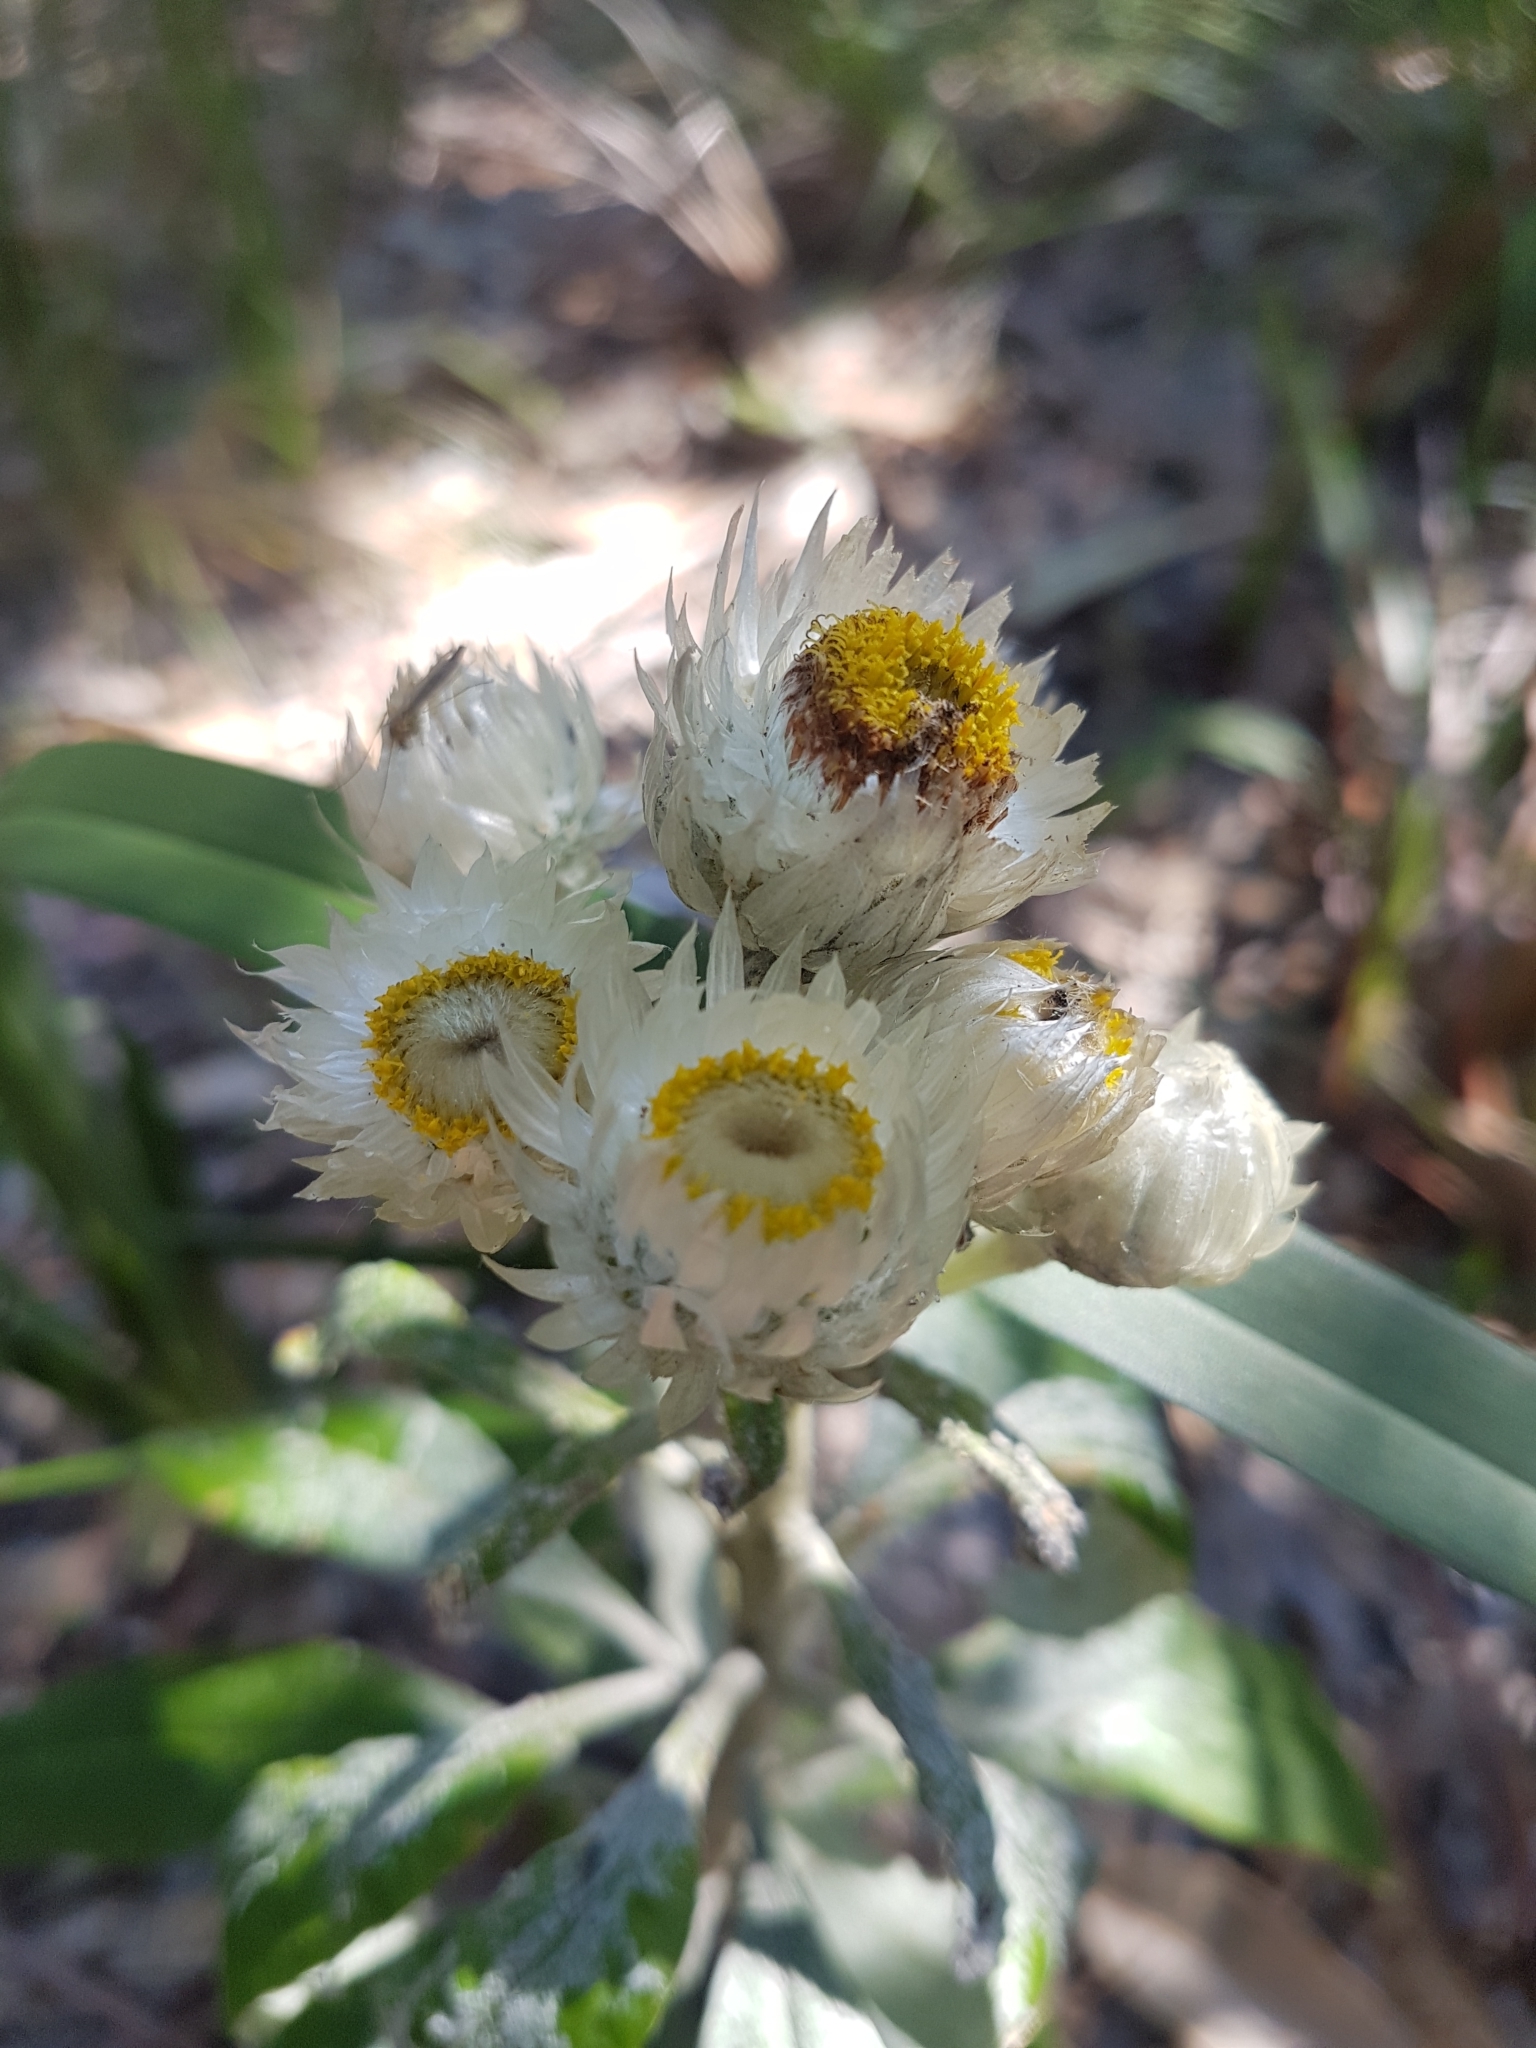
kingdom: Plantae
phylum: Tracheophyta
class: Magnoliopsida
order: Asterales
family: Asteraceae
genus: Leucozoma
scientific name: Leucozoma elatum
